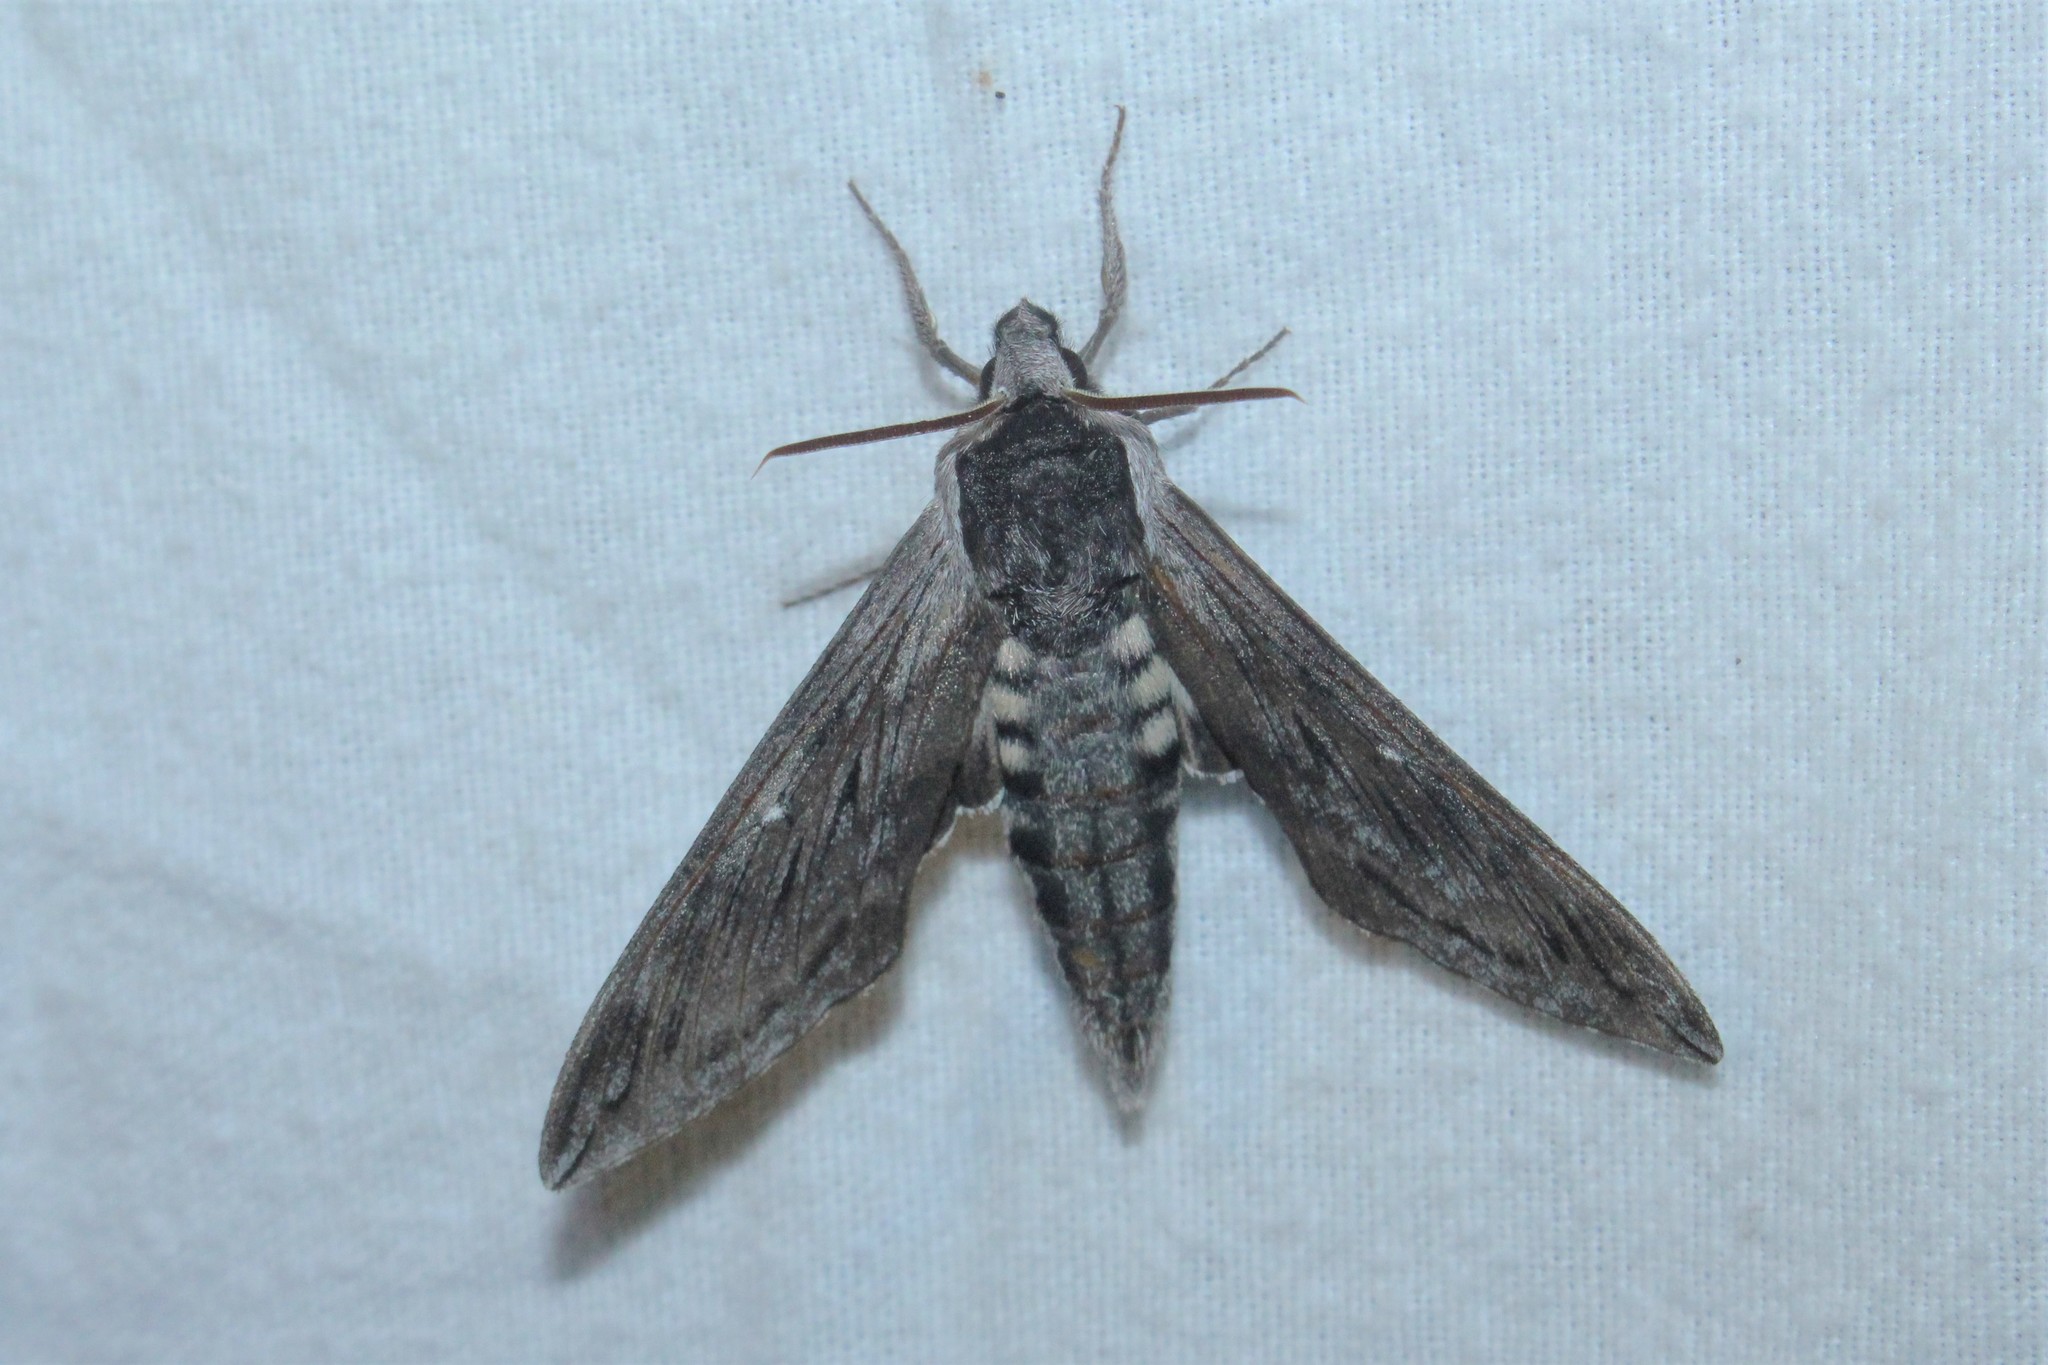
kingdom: Animalia
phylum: Arthropoda
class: Insecta
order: Lepidoptera
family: Sphingidae
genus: Sphinx
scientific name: Sphinx poecila
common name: Northern apple sphinx
